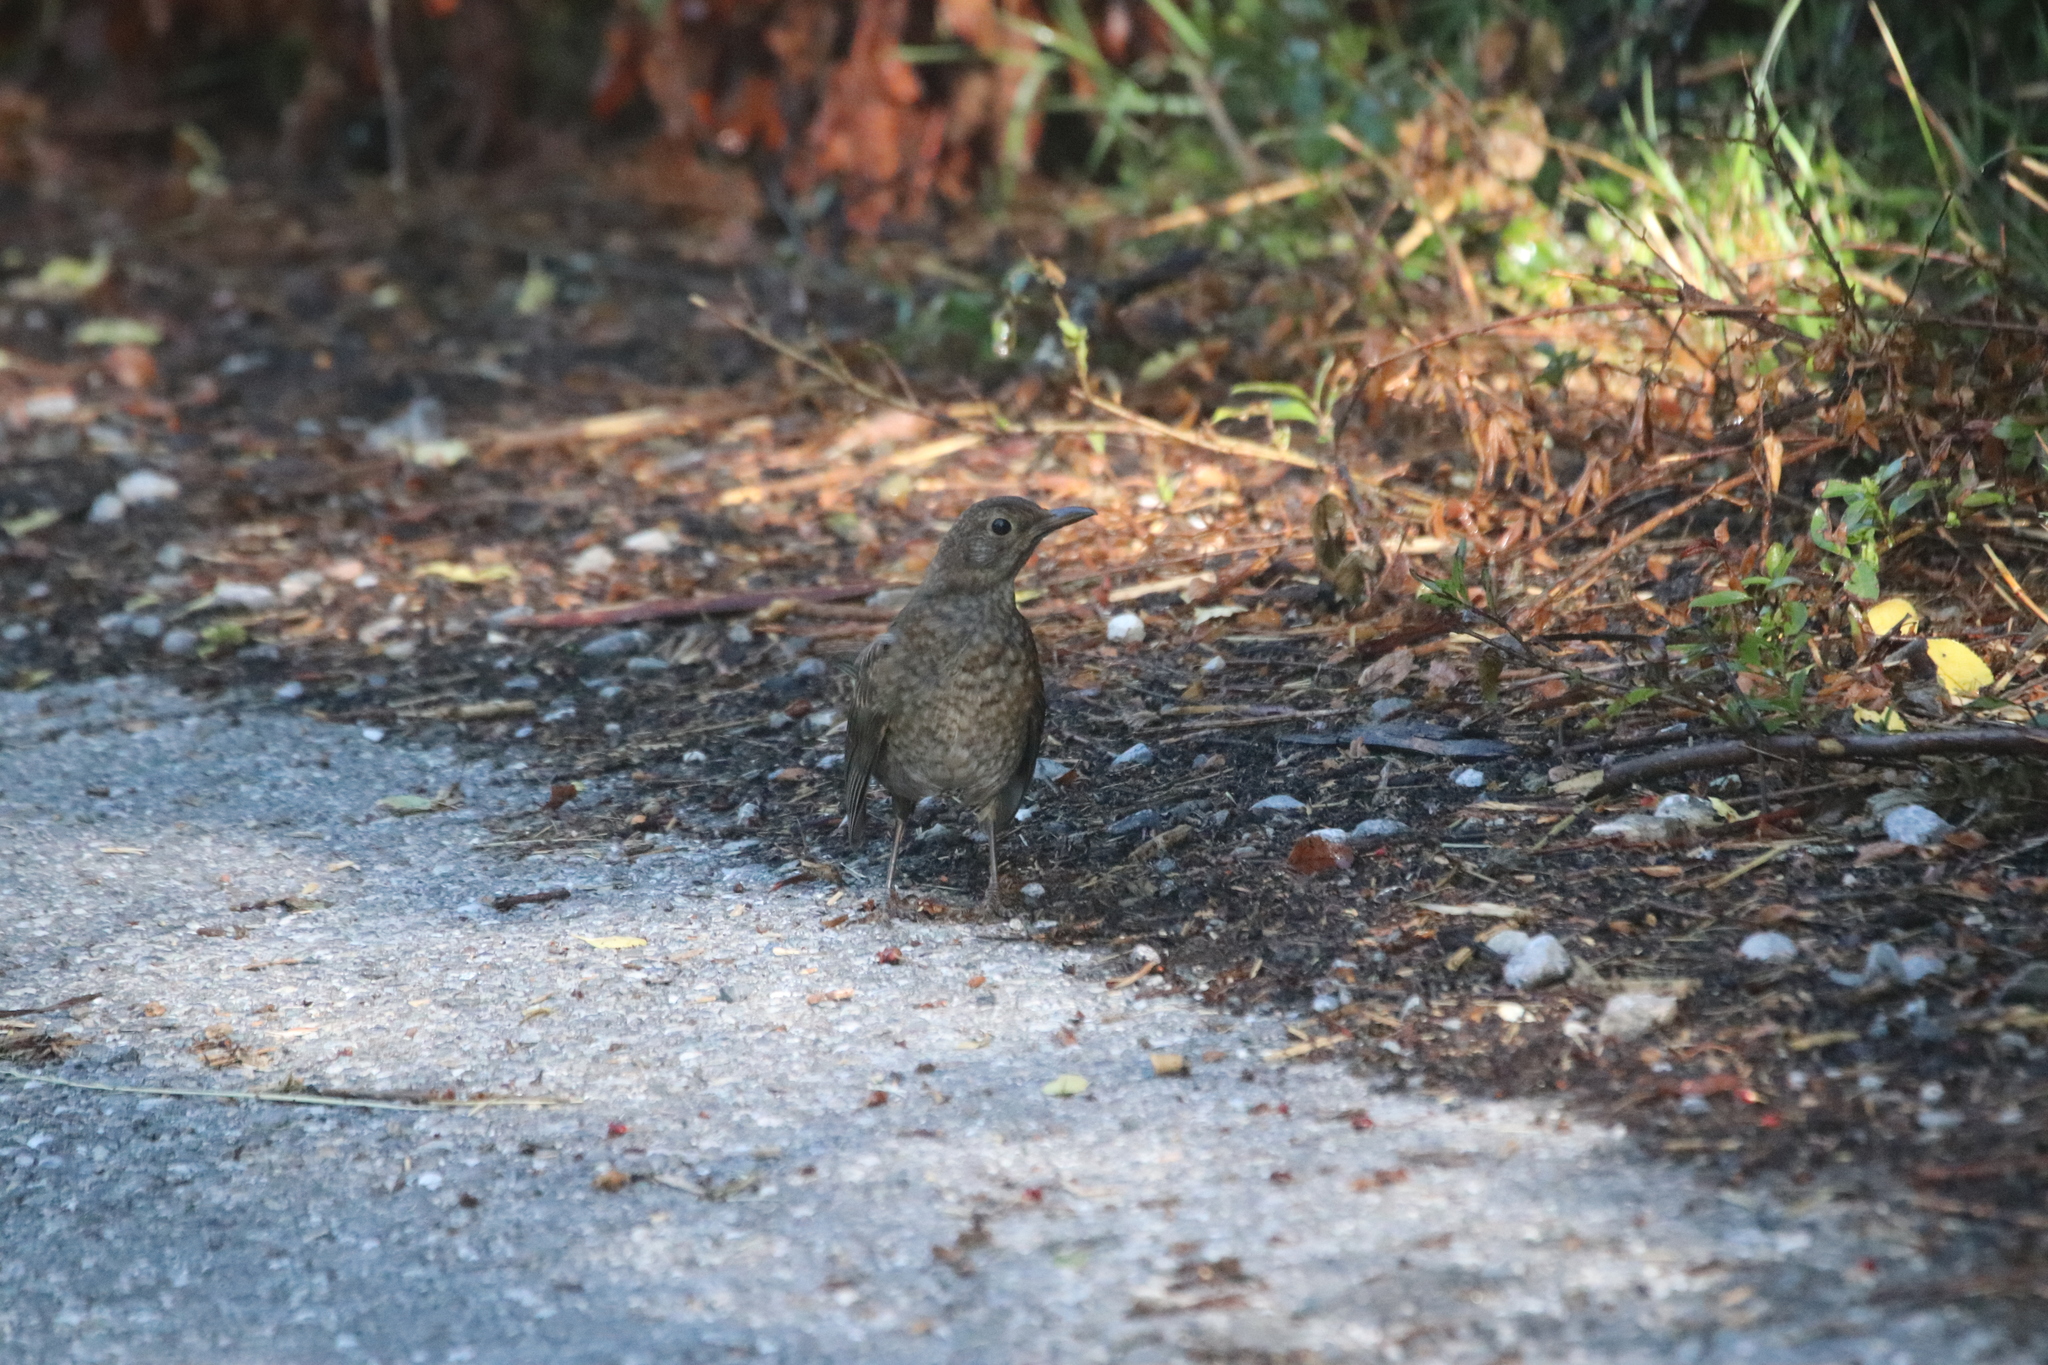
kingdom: Animalia
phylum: Chordata
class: Aves
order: Passeriformes
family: Turdidae
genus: Turdus
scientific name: Turdus merula
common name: Common blackbird
